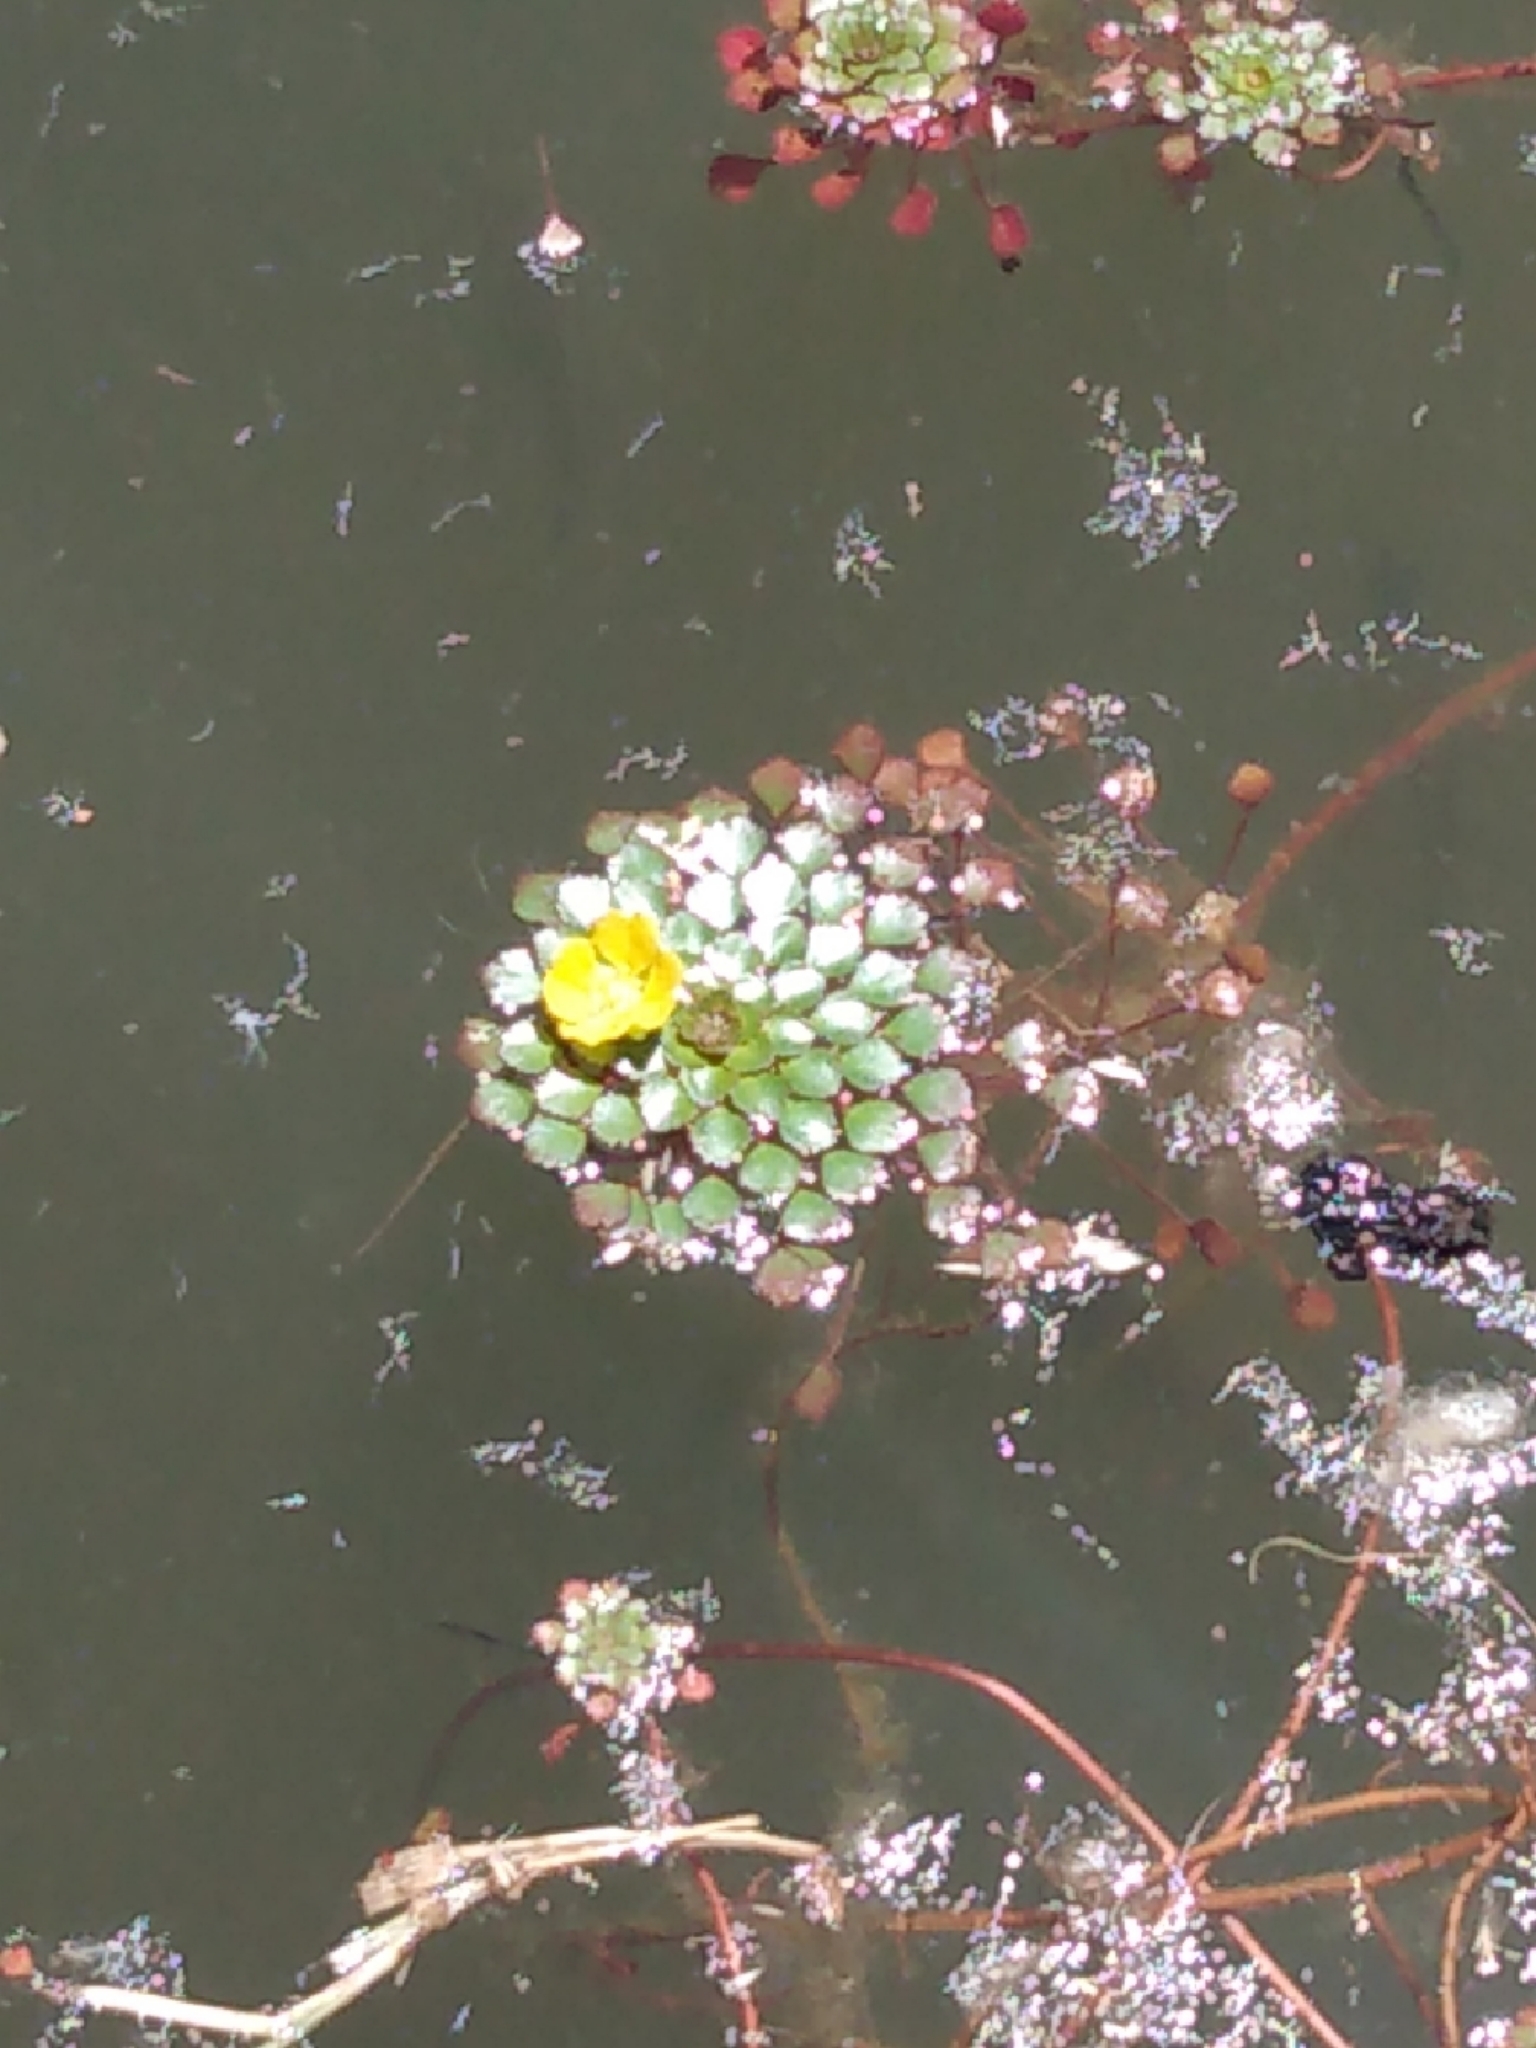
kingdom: Plantae
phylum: Tracheophyta
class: Magnoliopsida
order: Myrtales
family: Onagraceae
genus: Ludwigia
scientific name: Ludwigia sedioides
